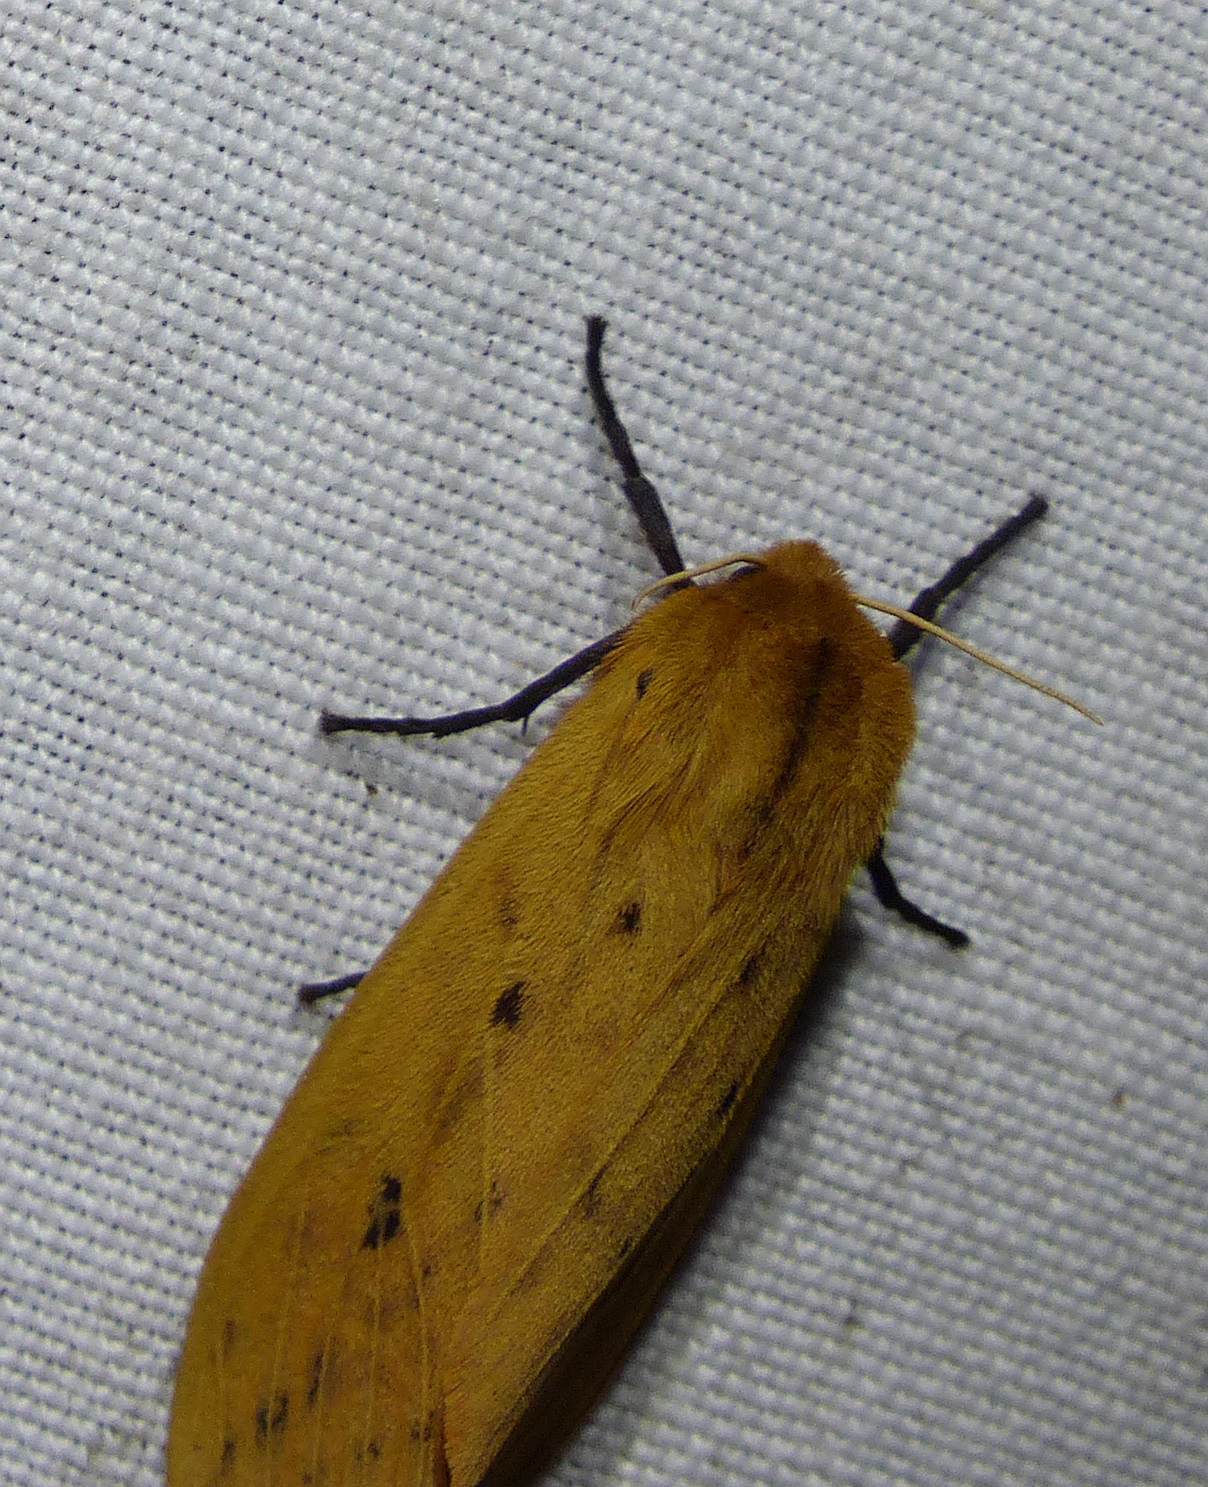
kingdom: Animalia
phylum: Arthropoda
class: Insecta
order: Lepidoptera
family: Erebidae
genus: Pyrrharctia
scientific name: Pyrrharctia isabella
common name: Isabella tiger moth
